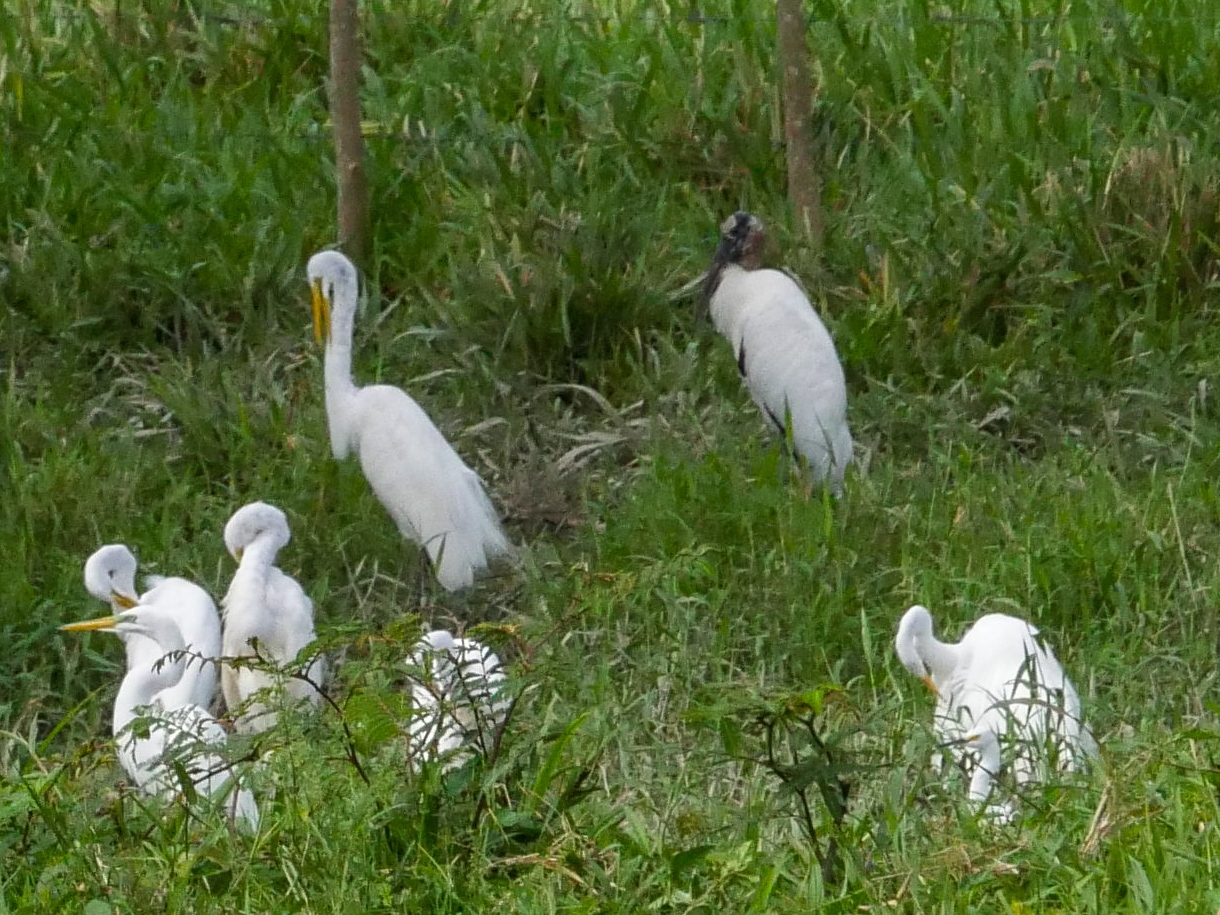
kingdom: Animalia
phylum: Chordata
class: Aves
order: Pelecaniformes
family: Ardeidae
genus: Ardea
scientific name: Ardea alba
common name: Great egret
